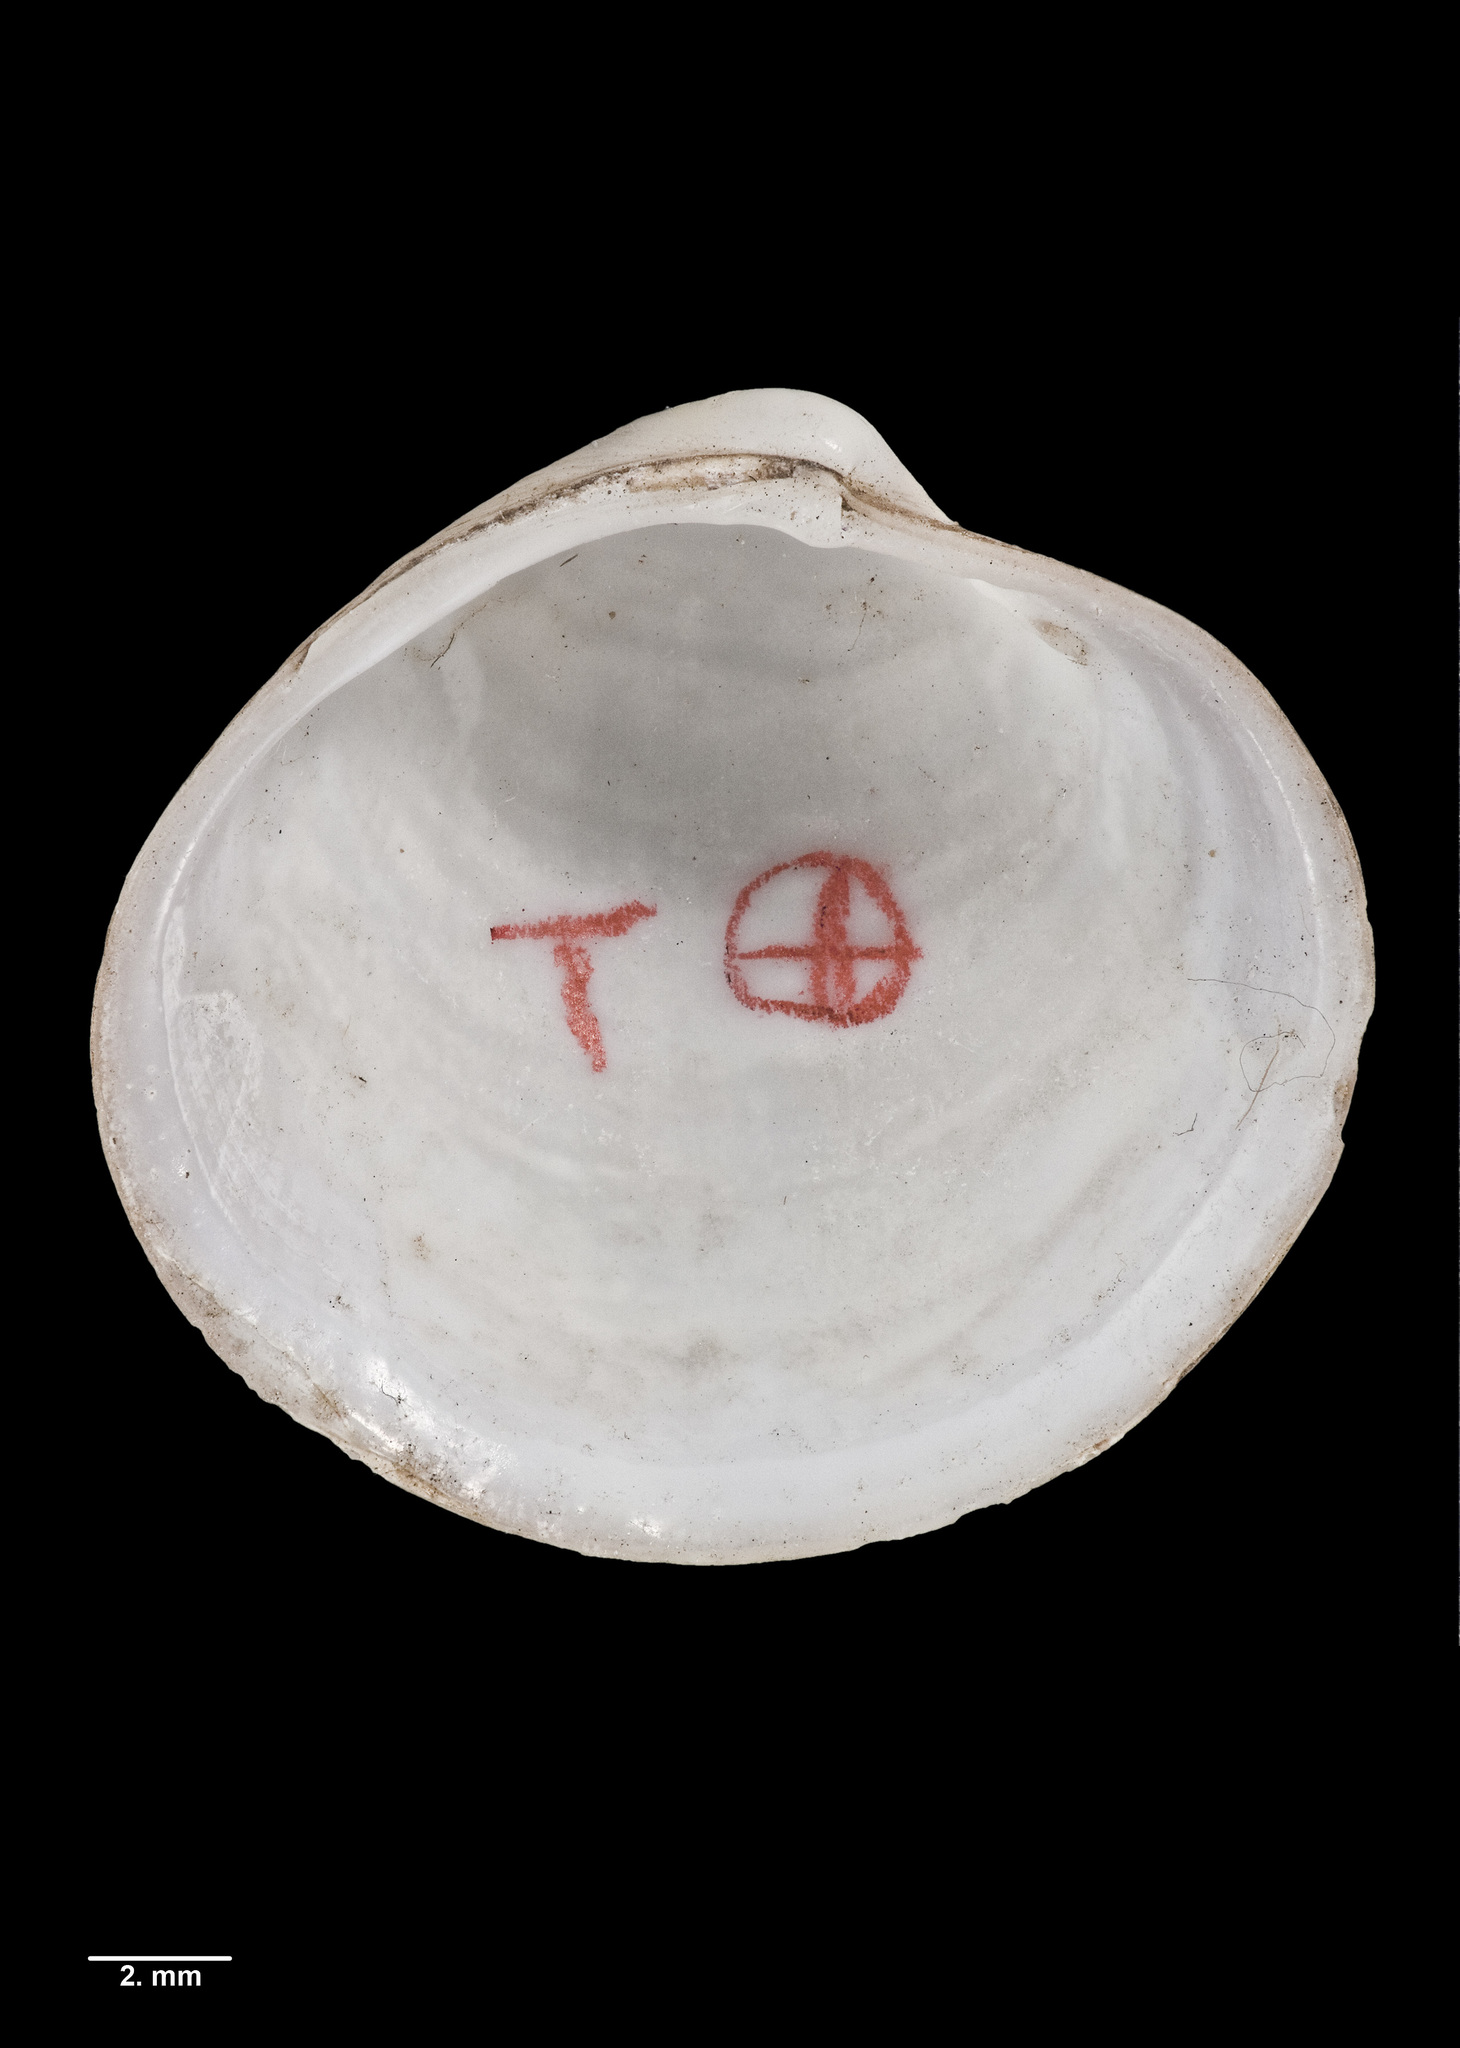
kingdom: Animalia
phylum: Mollusca
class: Bivalvia
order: Venerida
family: Ungulinidae
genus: Zemysina
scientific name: Zemysina globus
